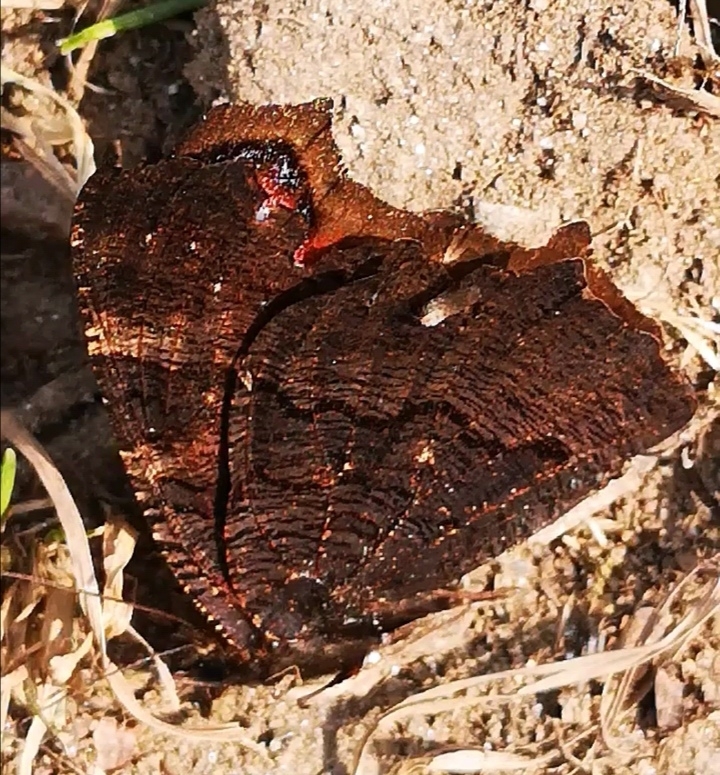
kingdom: Animalia
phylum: Arthropoda
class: Insecta
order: Lepidoptera
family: Nymphalidae
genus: Aglais
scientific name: Aglais io
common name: Peacock
